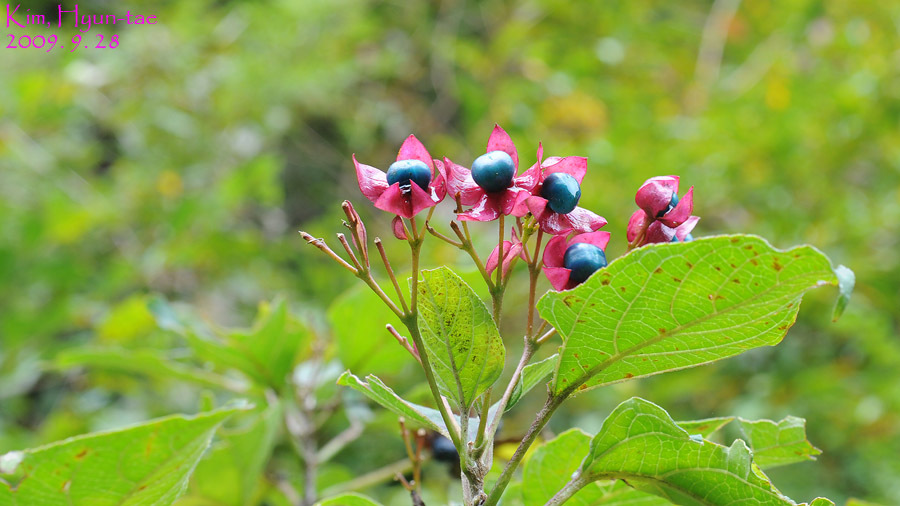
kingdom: Plantae
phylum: Tracheophyta
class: Magnoliopsida
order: Lamiales
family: Lamiaceae
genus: Clerodendrum
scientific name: Clerodendrum trichotomum
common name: Harlequin glorybower
